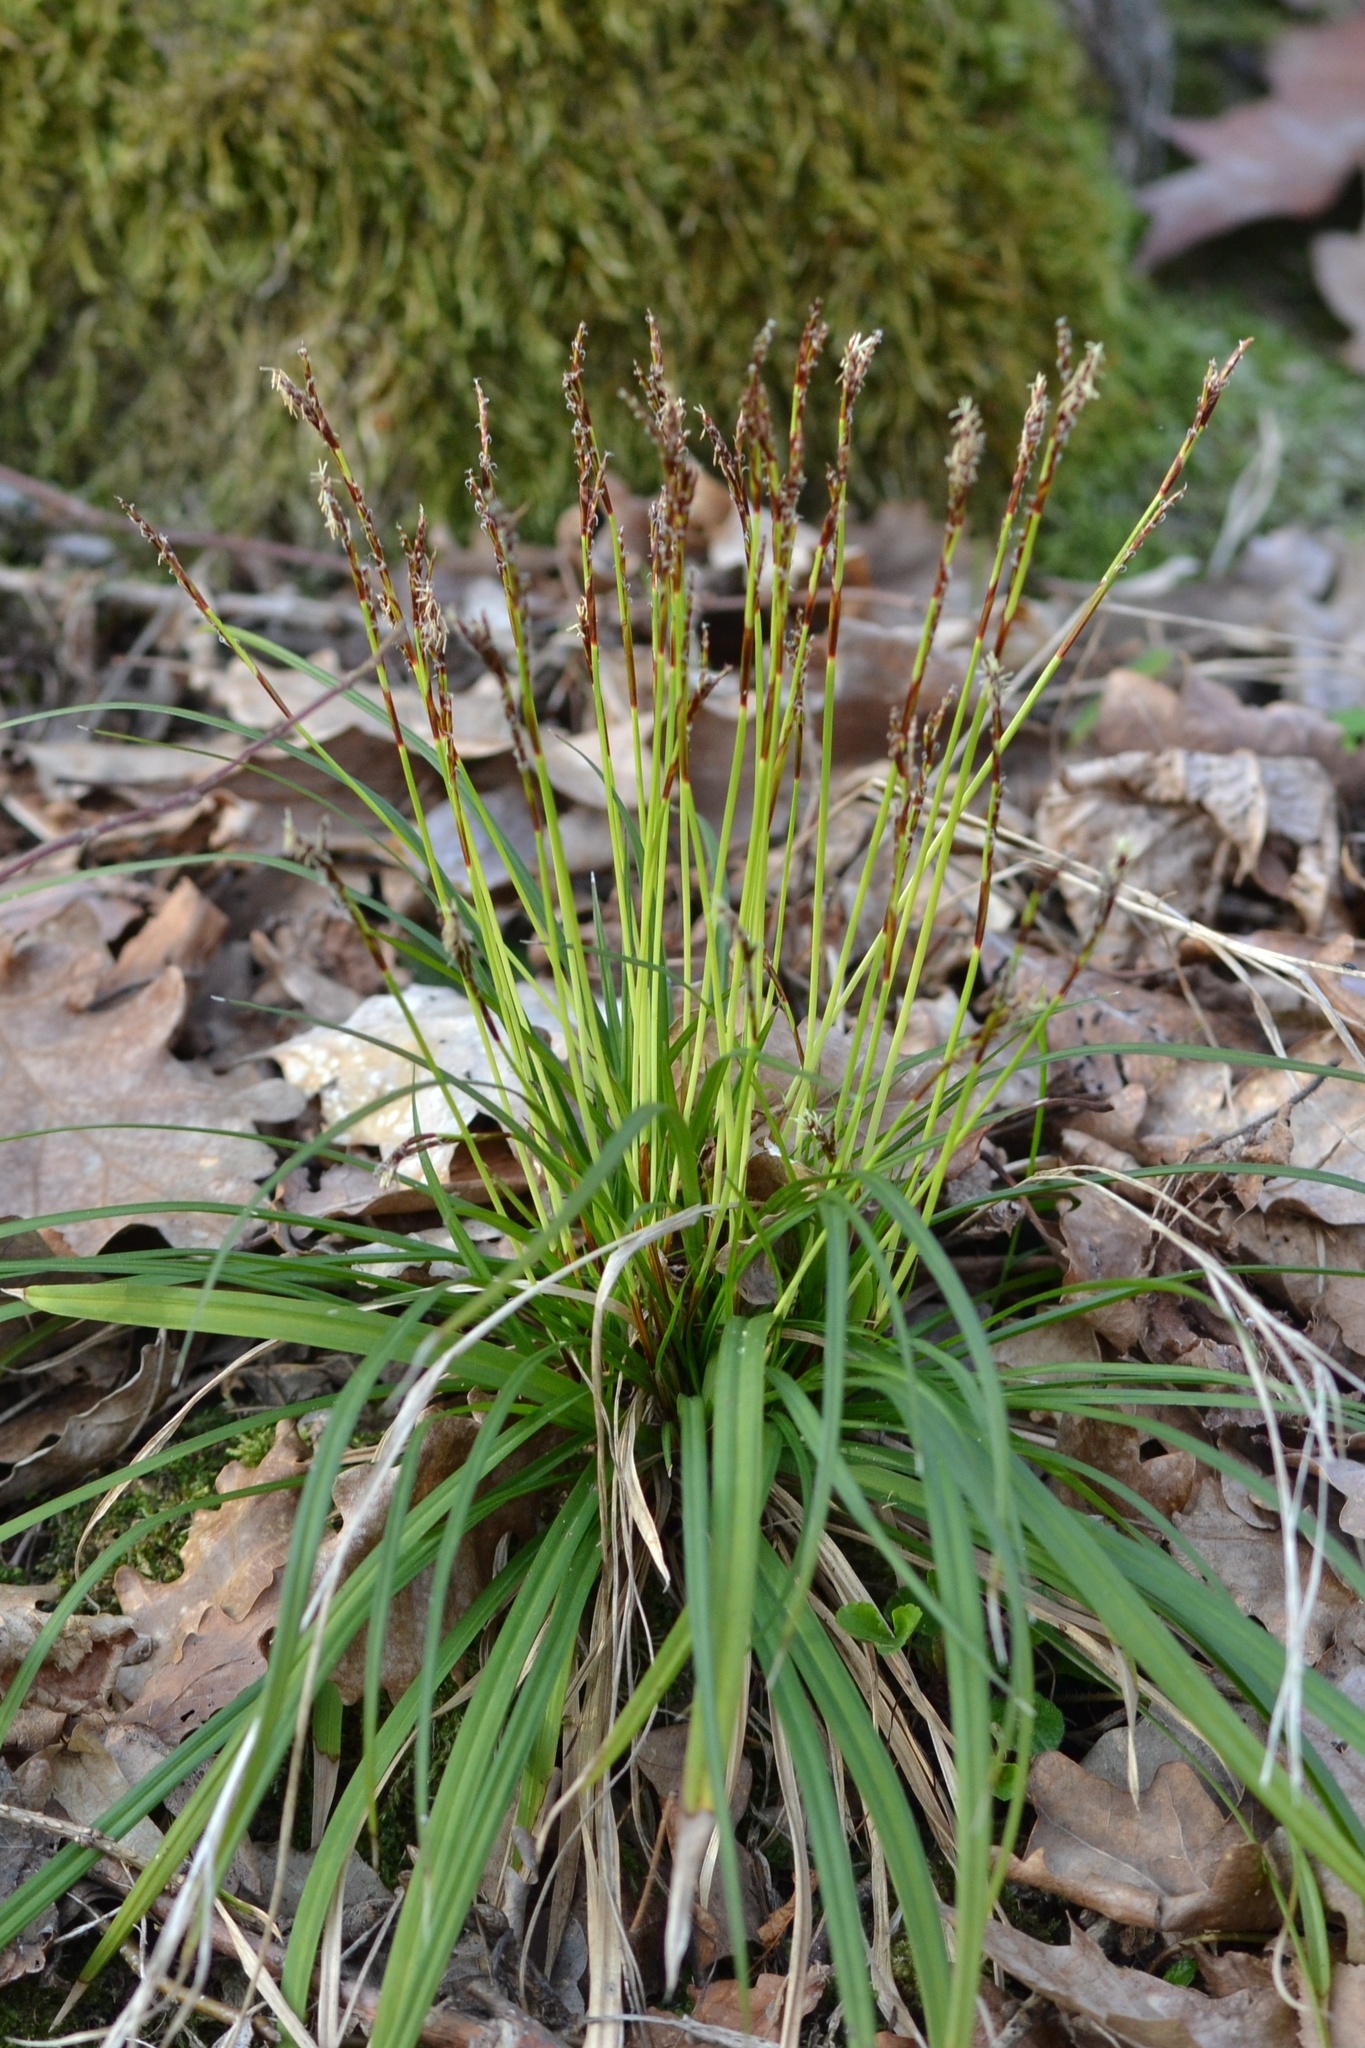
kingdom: Plantae
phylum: Tracheophyta
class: Liliopsida
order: Poales
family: Cyperaceae
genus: Carex
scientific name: Carex digitata
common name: Fingered sedge
